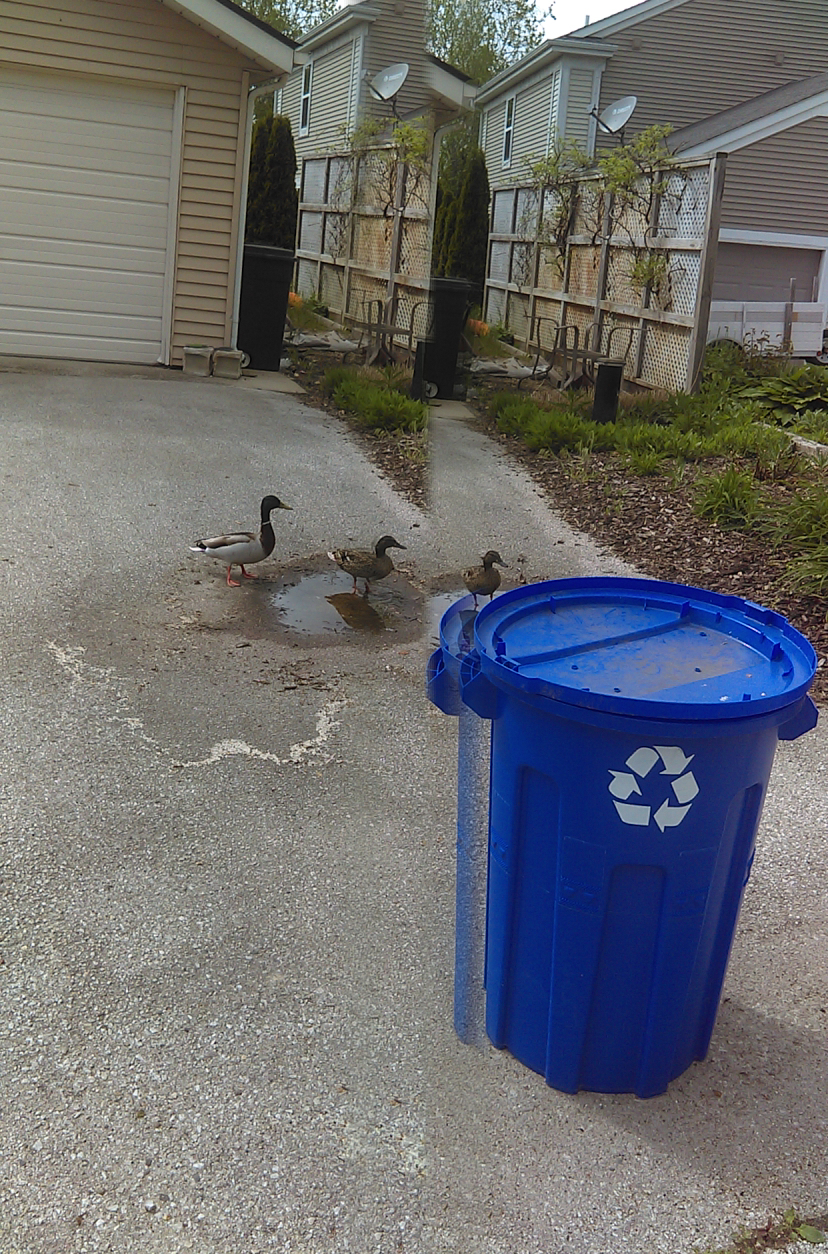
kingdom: Animalia
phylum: Chordata
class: Aves
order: Anseriformes
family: Anatidae
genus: Anas
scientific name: Anas platyrhynchos
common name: Mallard
